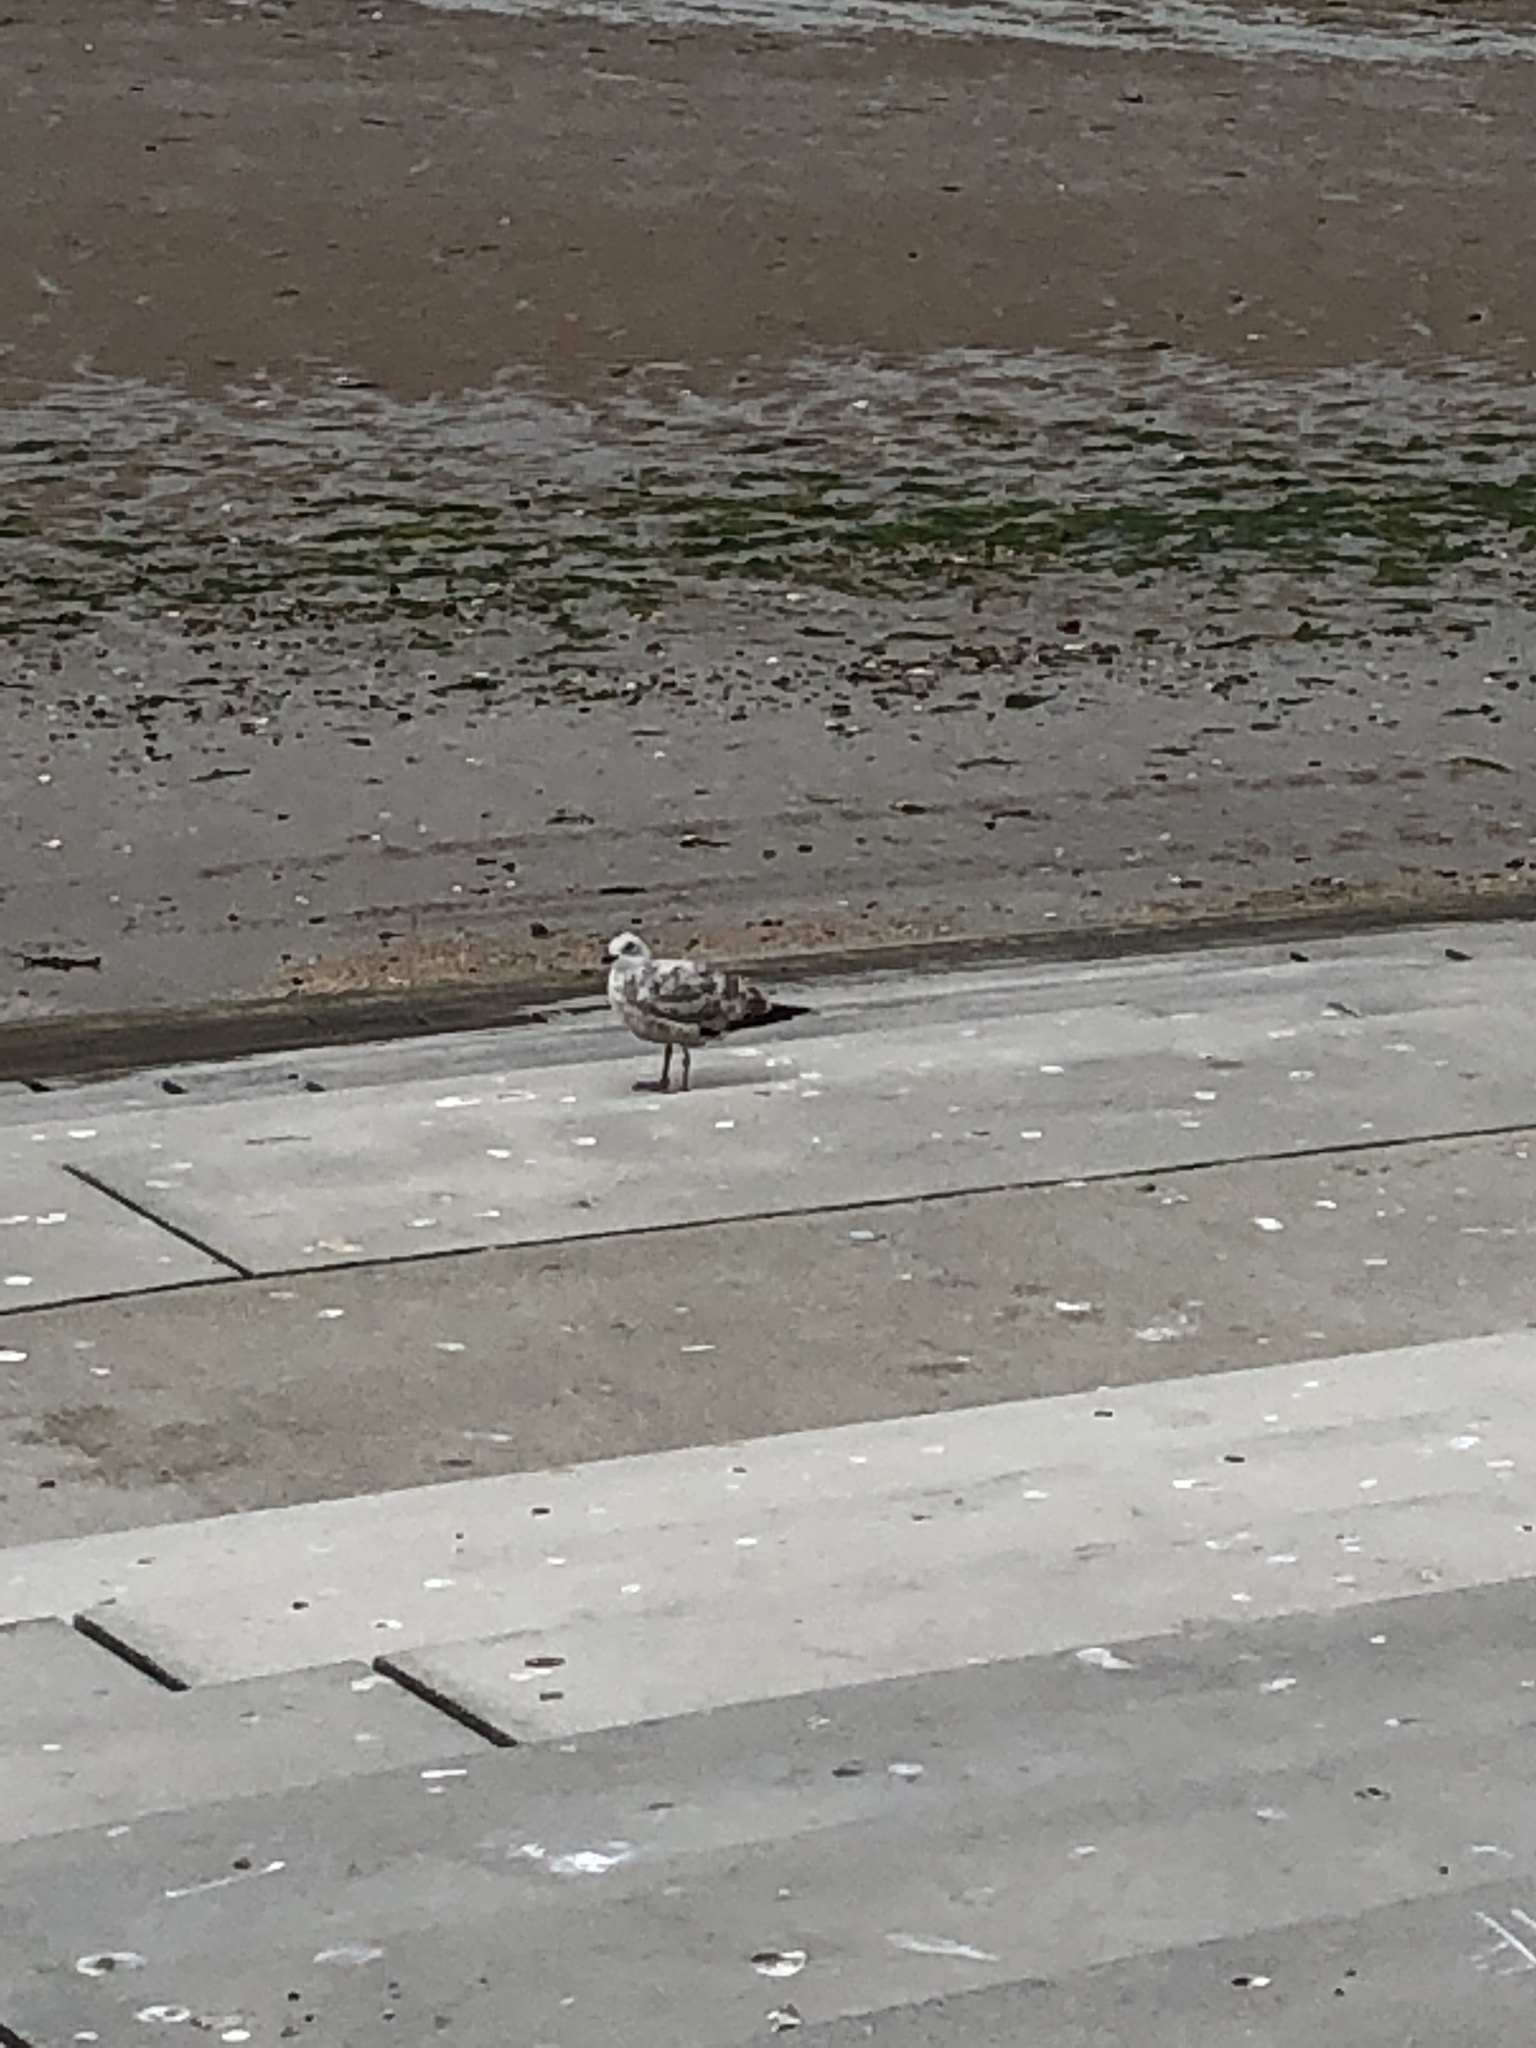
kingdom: Animalia
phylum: Chordata
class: Aves
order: Charadriiformes
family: Laridae
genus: Larus
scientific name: Larus argentatus
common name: Herring gull
